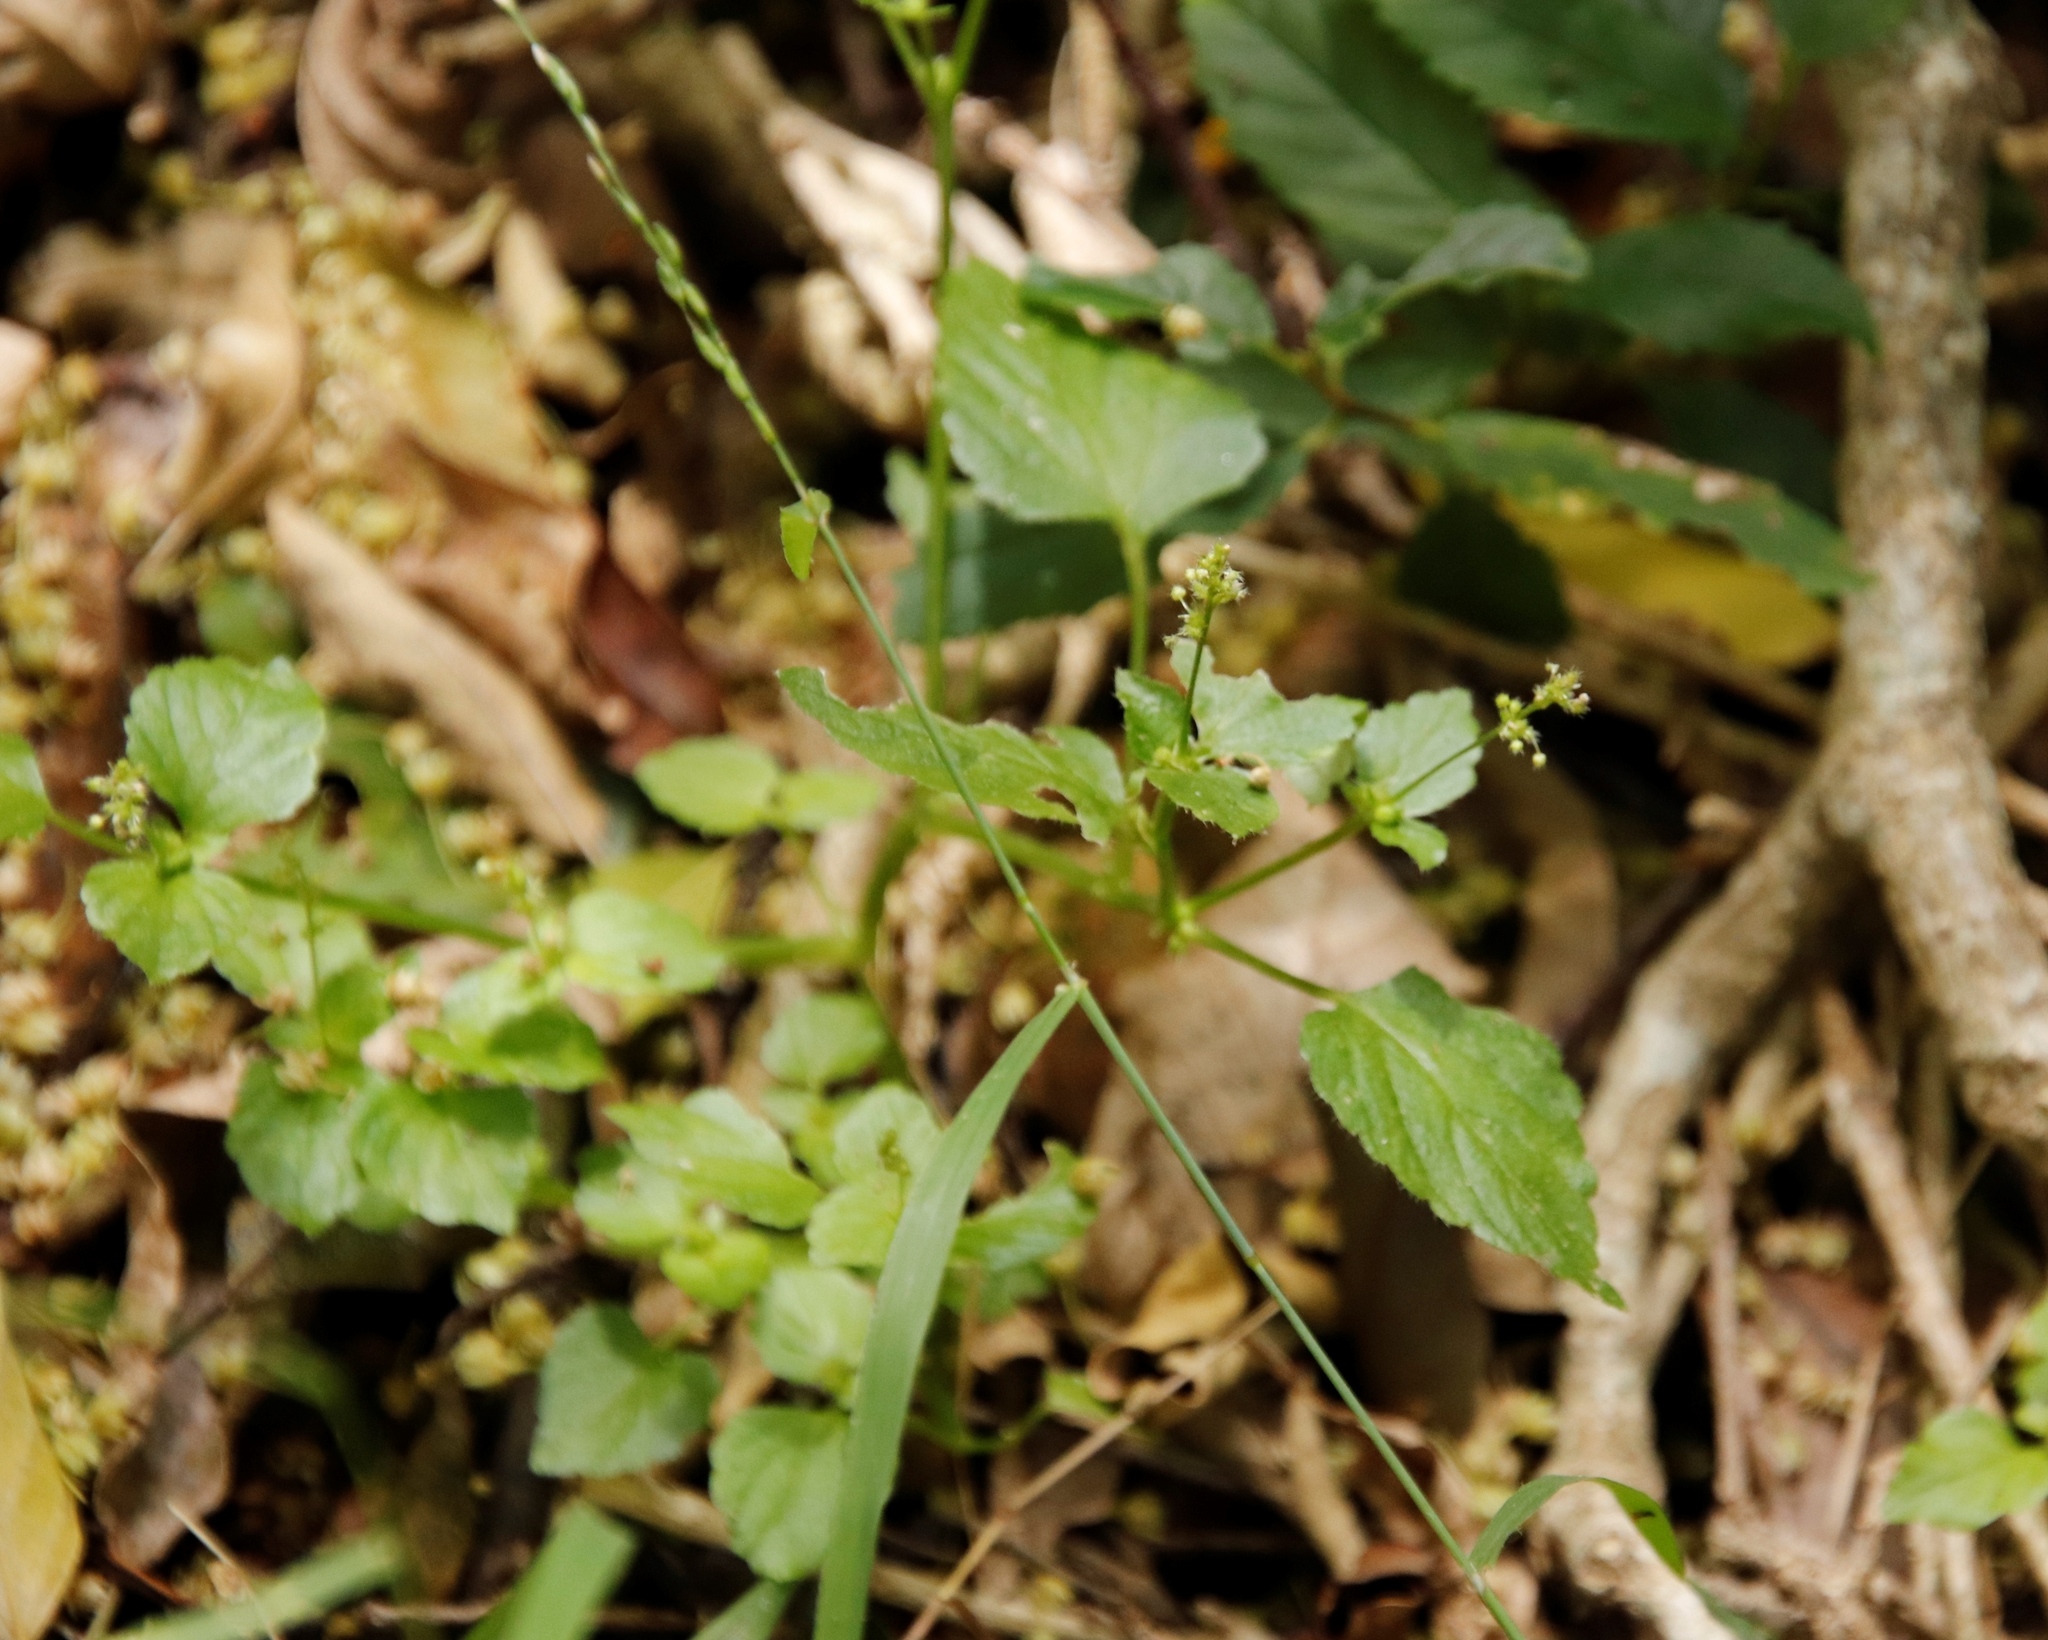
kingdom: Plantae
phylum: Tracheophyta
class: Magnoliopsida
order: Malpighiales
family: Euphorbiaceae
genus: Leidesia
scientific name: Leidesia procumbens
